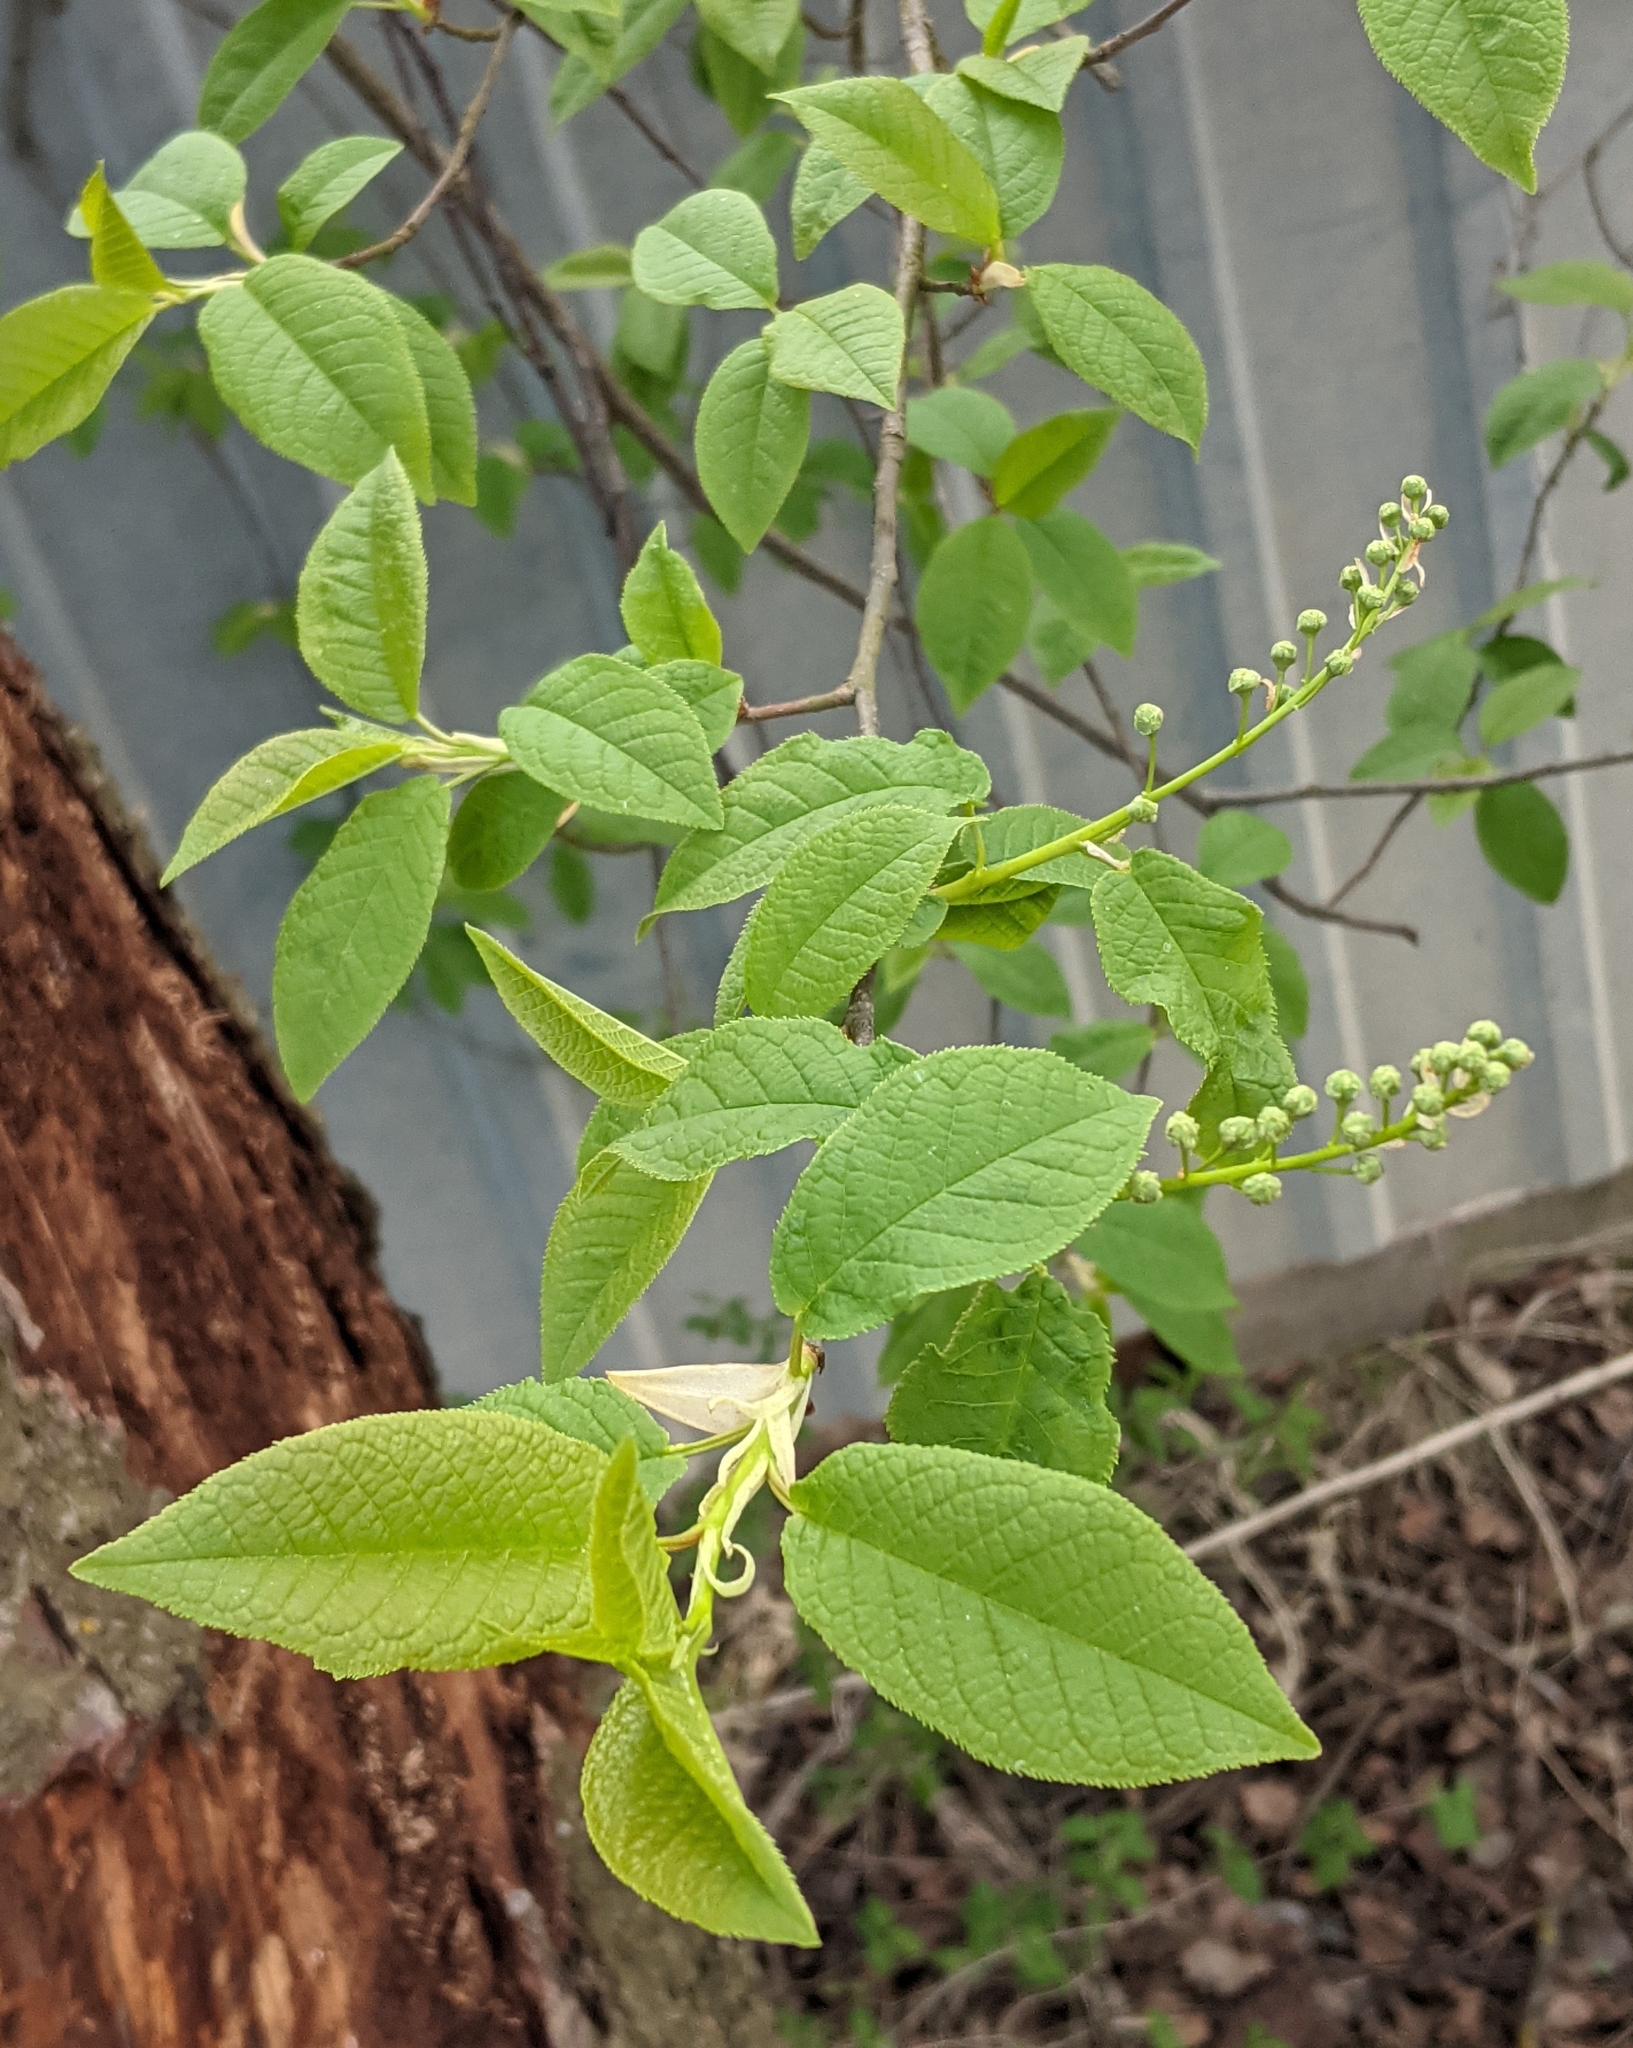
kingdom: Plantae
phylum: Tracheophyta
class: Magnoliopsida
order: Rosales
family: Rosaceae
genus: Prunus
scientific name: Prunus padus
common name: Bird cherry
